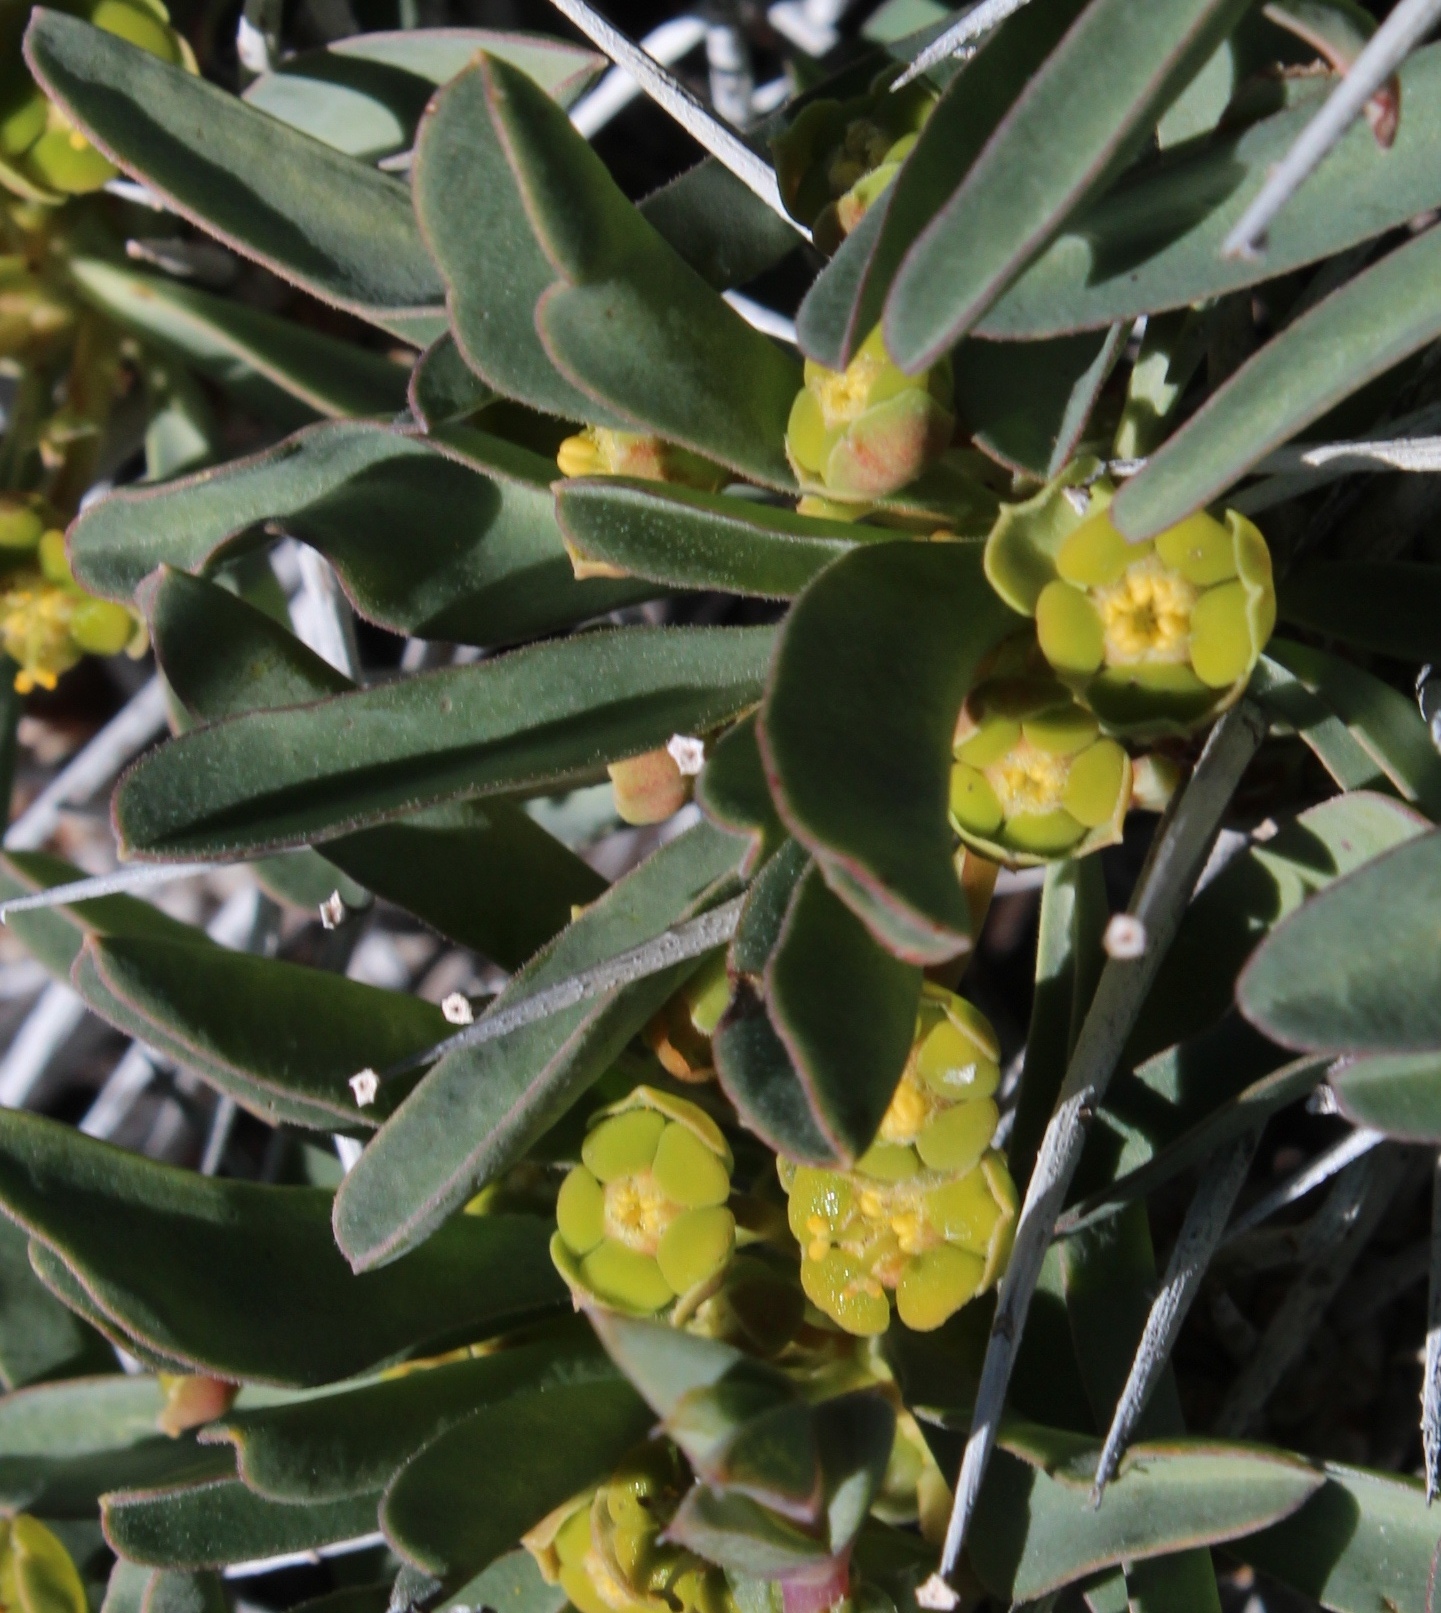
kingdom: Plantae
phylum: Tracheophyta
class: Magnoliopsida
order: Malpighiales
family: Euphorbiaceae
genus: Euphorbia
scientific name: Euphorbia loricata
